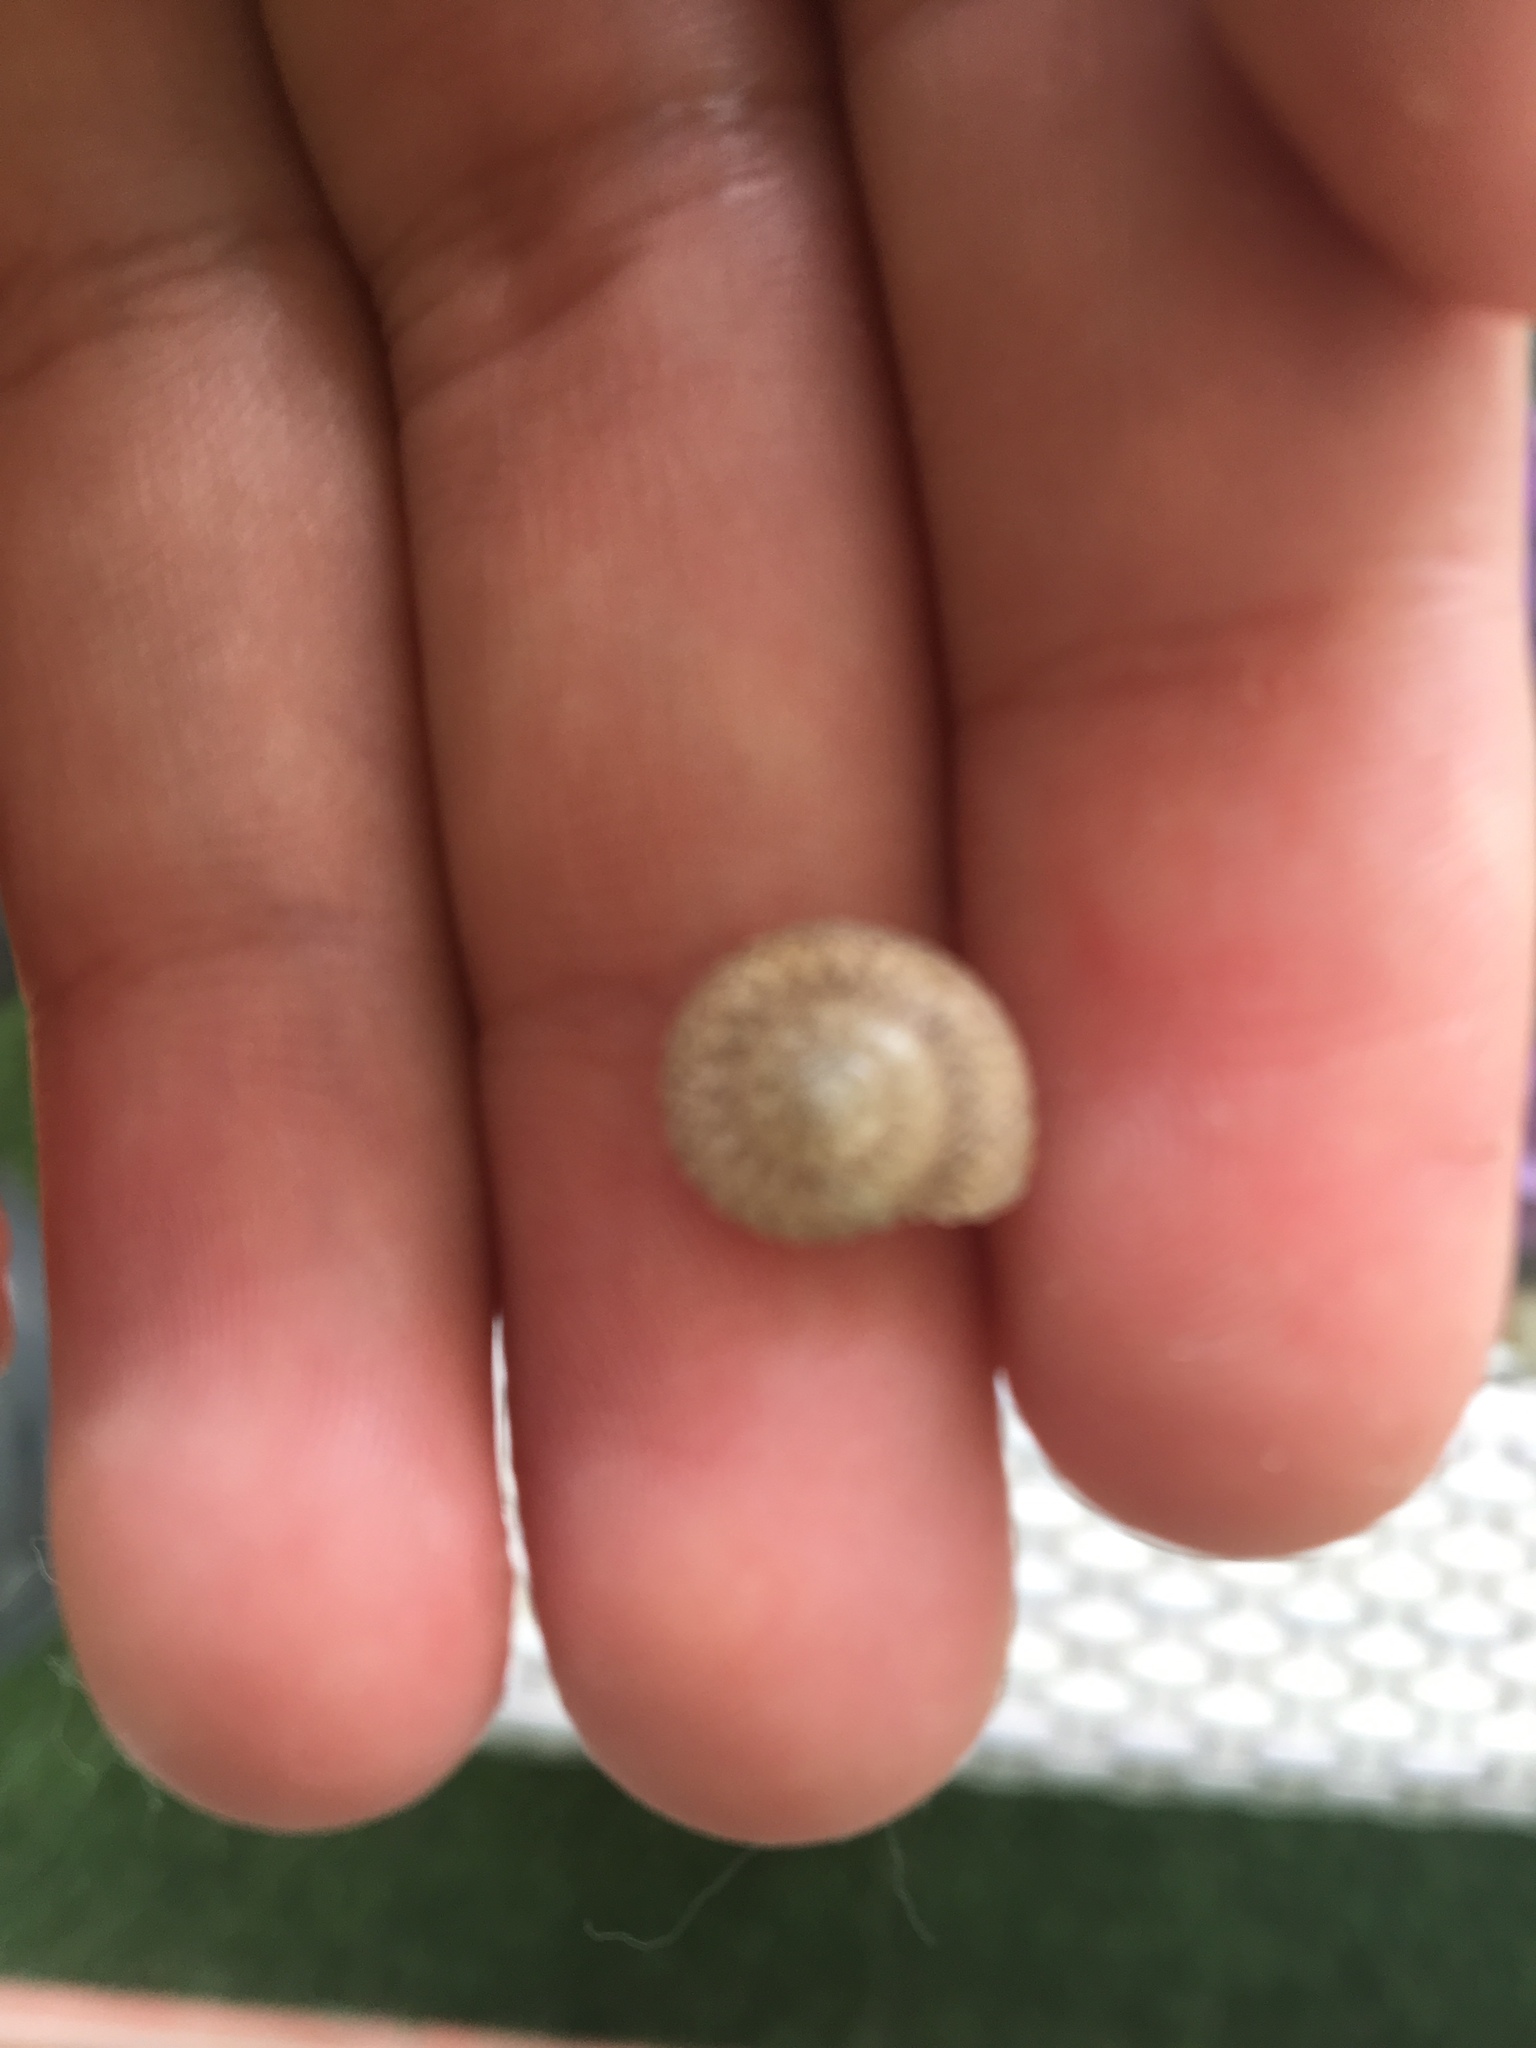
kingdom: Animalia
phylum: Mollusca
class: Gastropoda
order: Trochida
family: Trochidae
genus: Umbonium
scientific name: Umbonium vestiarium
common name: Button tops
